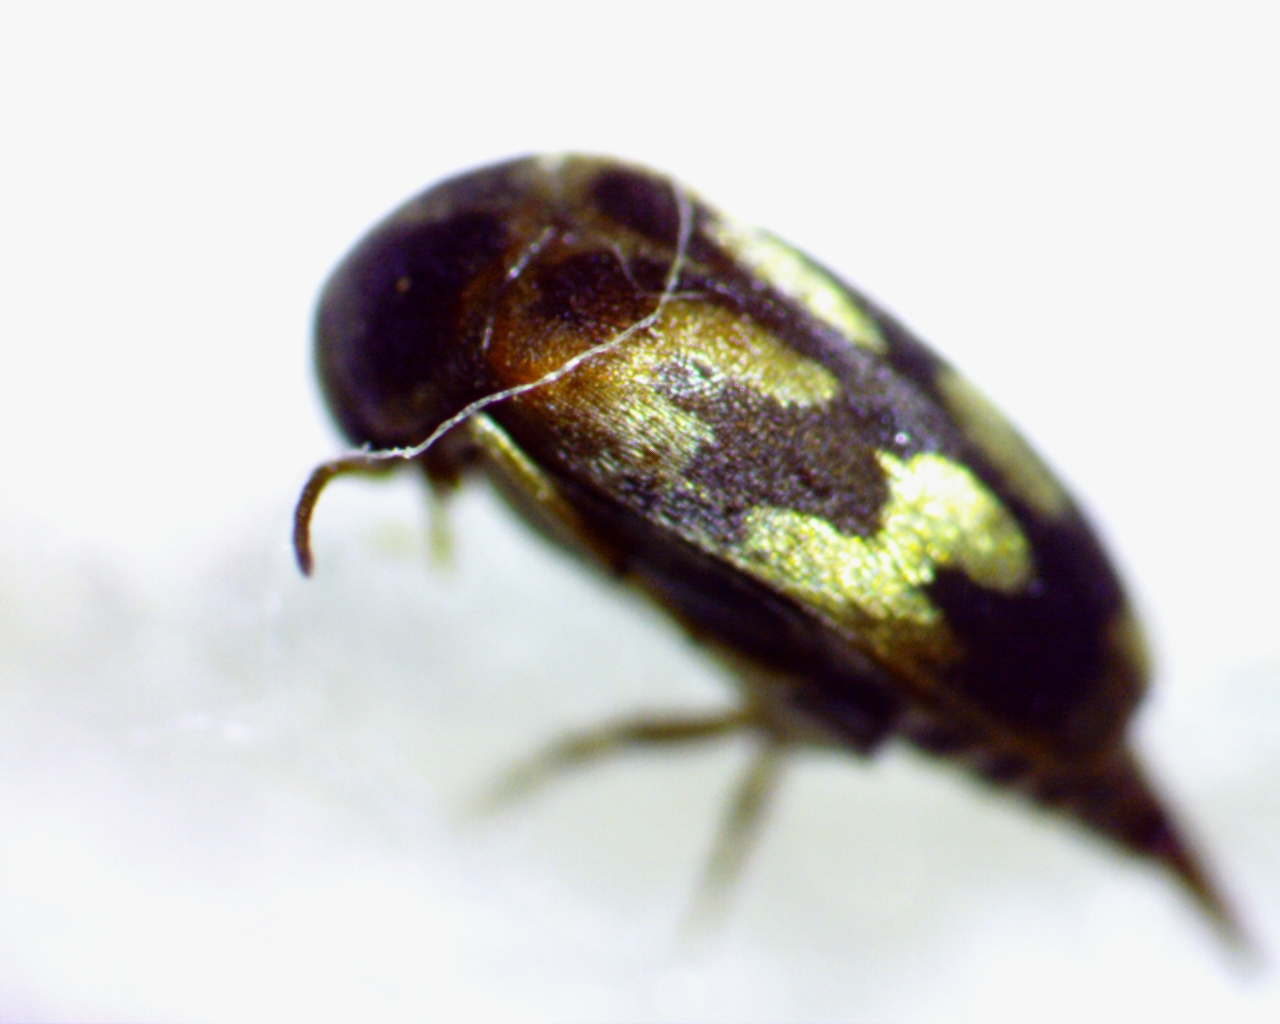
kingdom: Animalia
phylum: Arthropoda
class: Insecta
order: Coleoptera
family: Mordellidae
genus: Falsomordellistena
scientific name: Falsomordellistena bihamata
